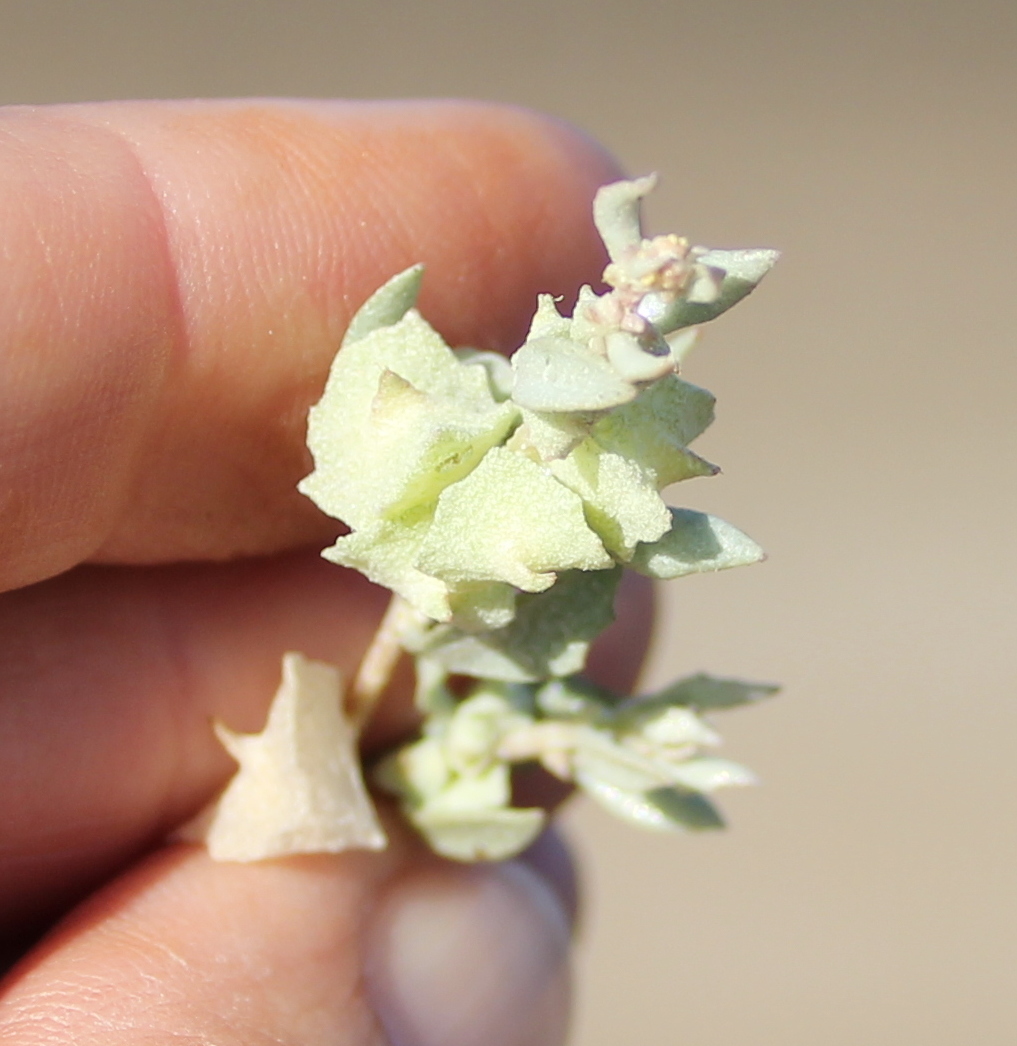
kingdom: Plantae
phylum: Tracheophyta
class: Magnoliopsida
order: Caryophyllales
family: Amaranthaceae
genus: Atriplex
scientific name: Atriplex lindleyi
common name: Lindley's saltbush
